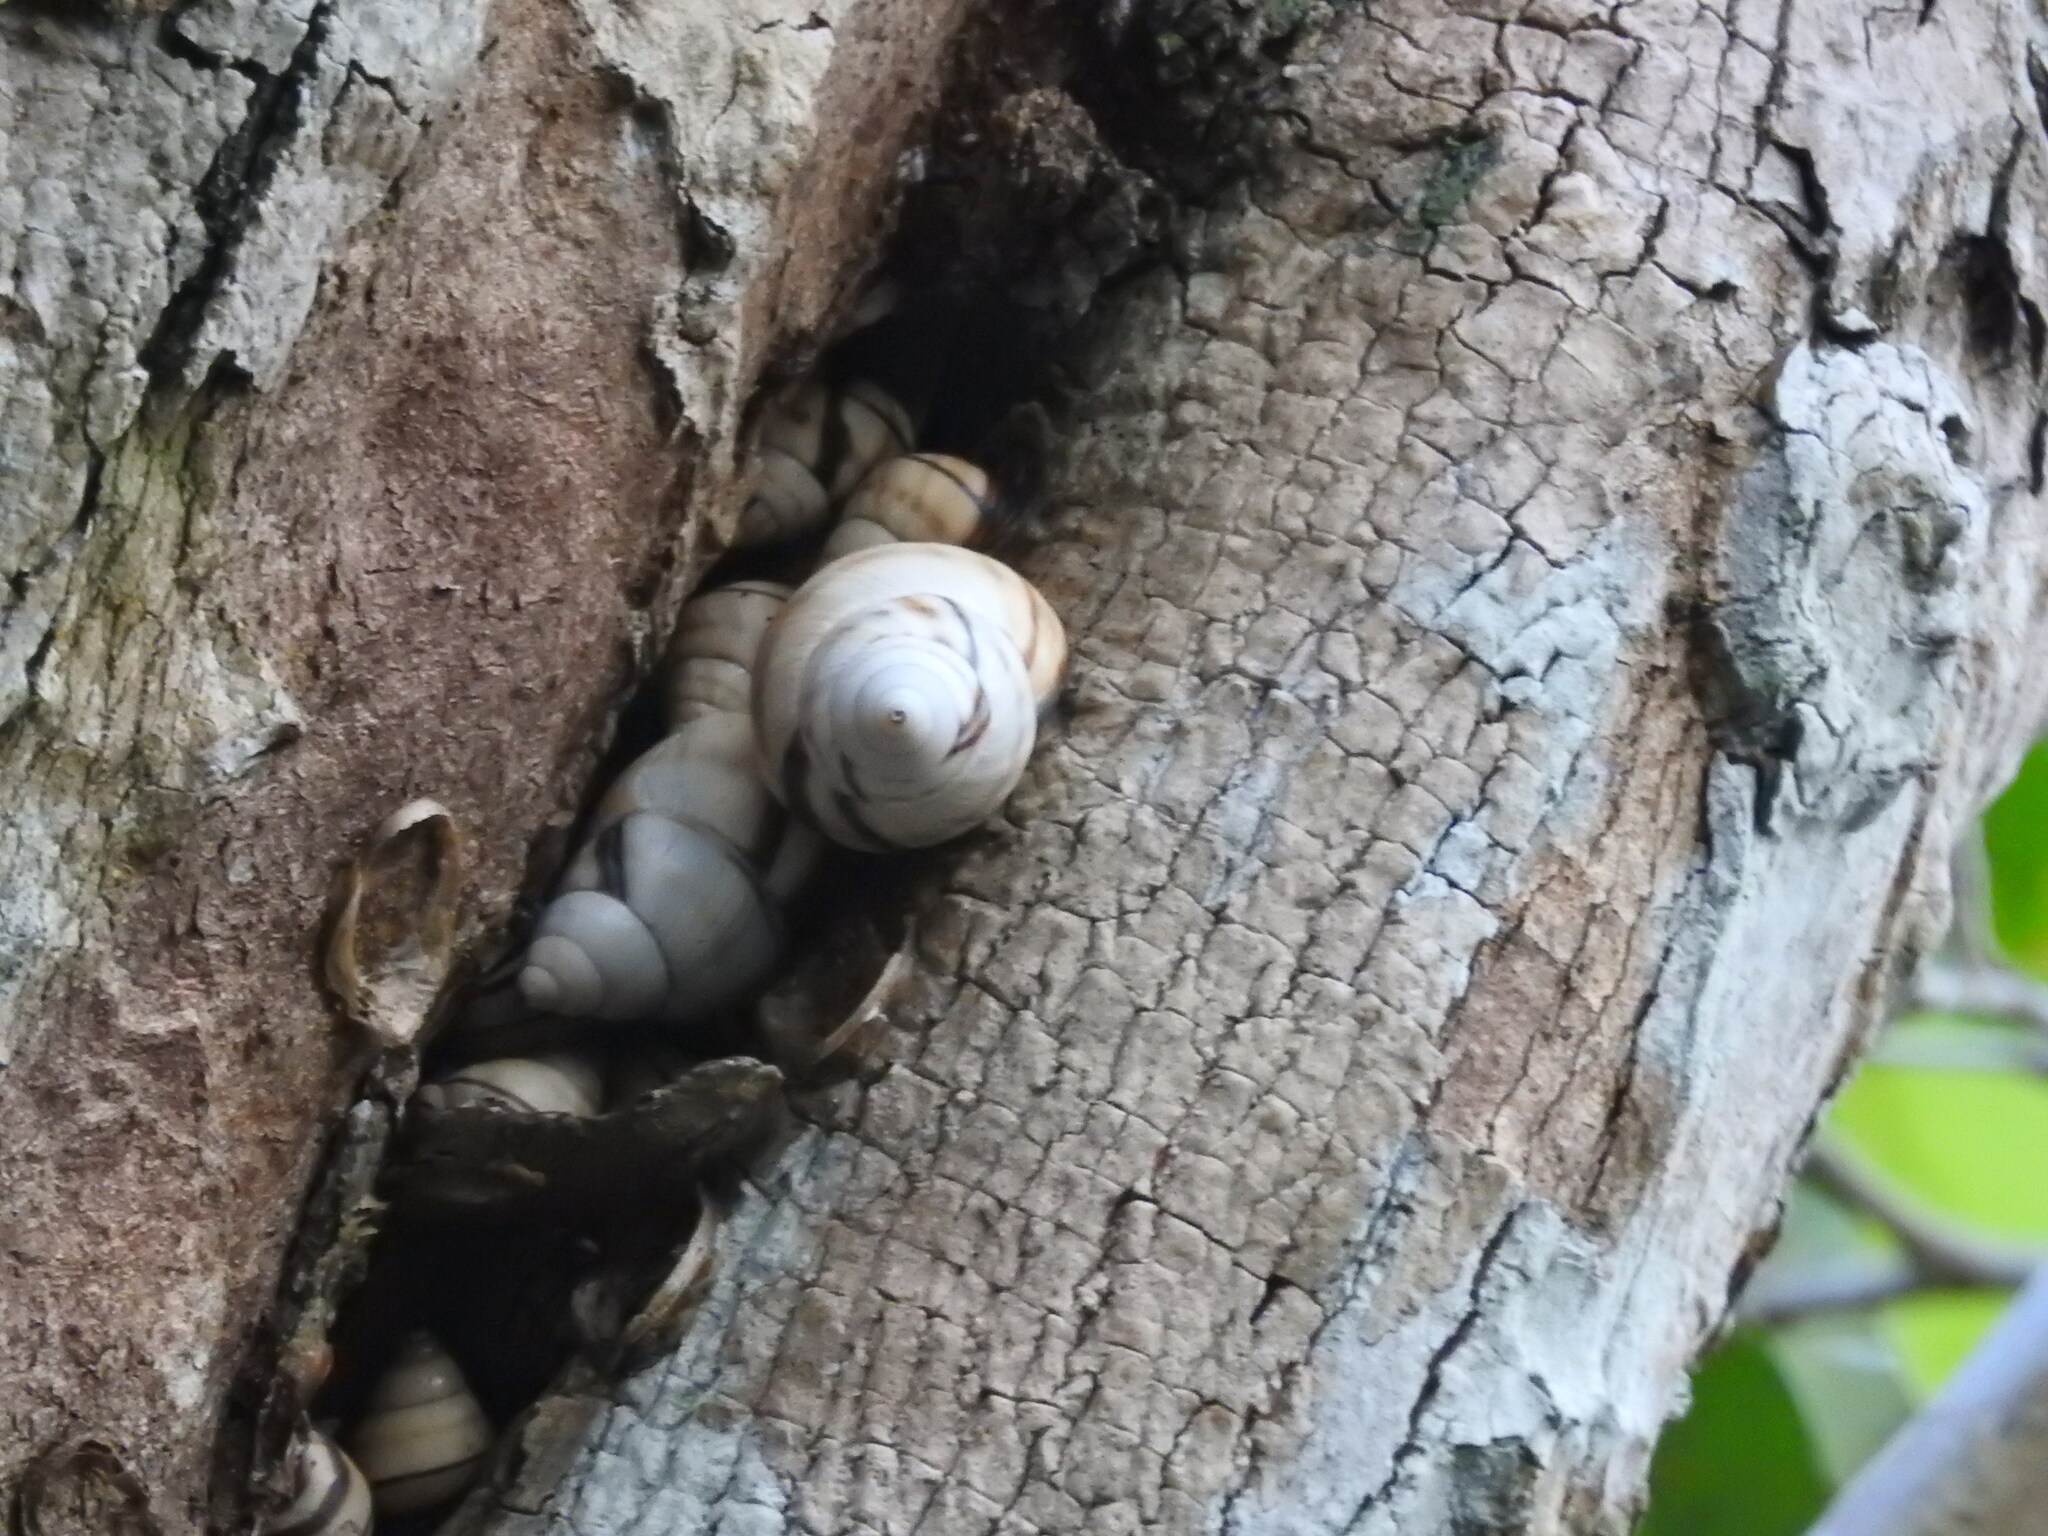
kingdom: Animalia
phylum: Mollusca
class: Gastropoda
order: Stylommatophora
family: Orthalicidae
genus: Orthalicus
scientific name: Orthalicus floridensis
